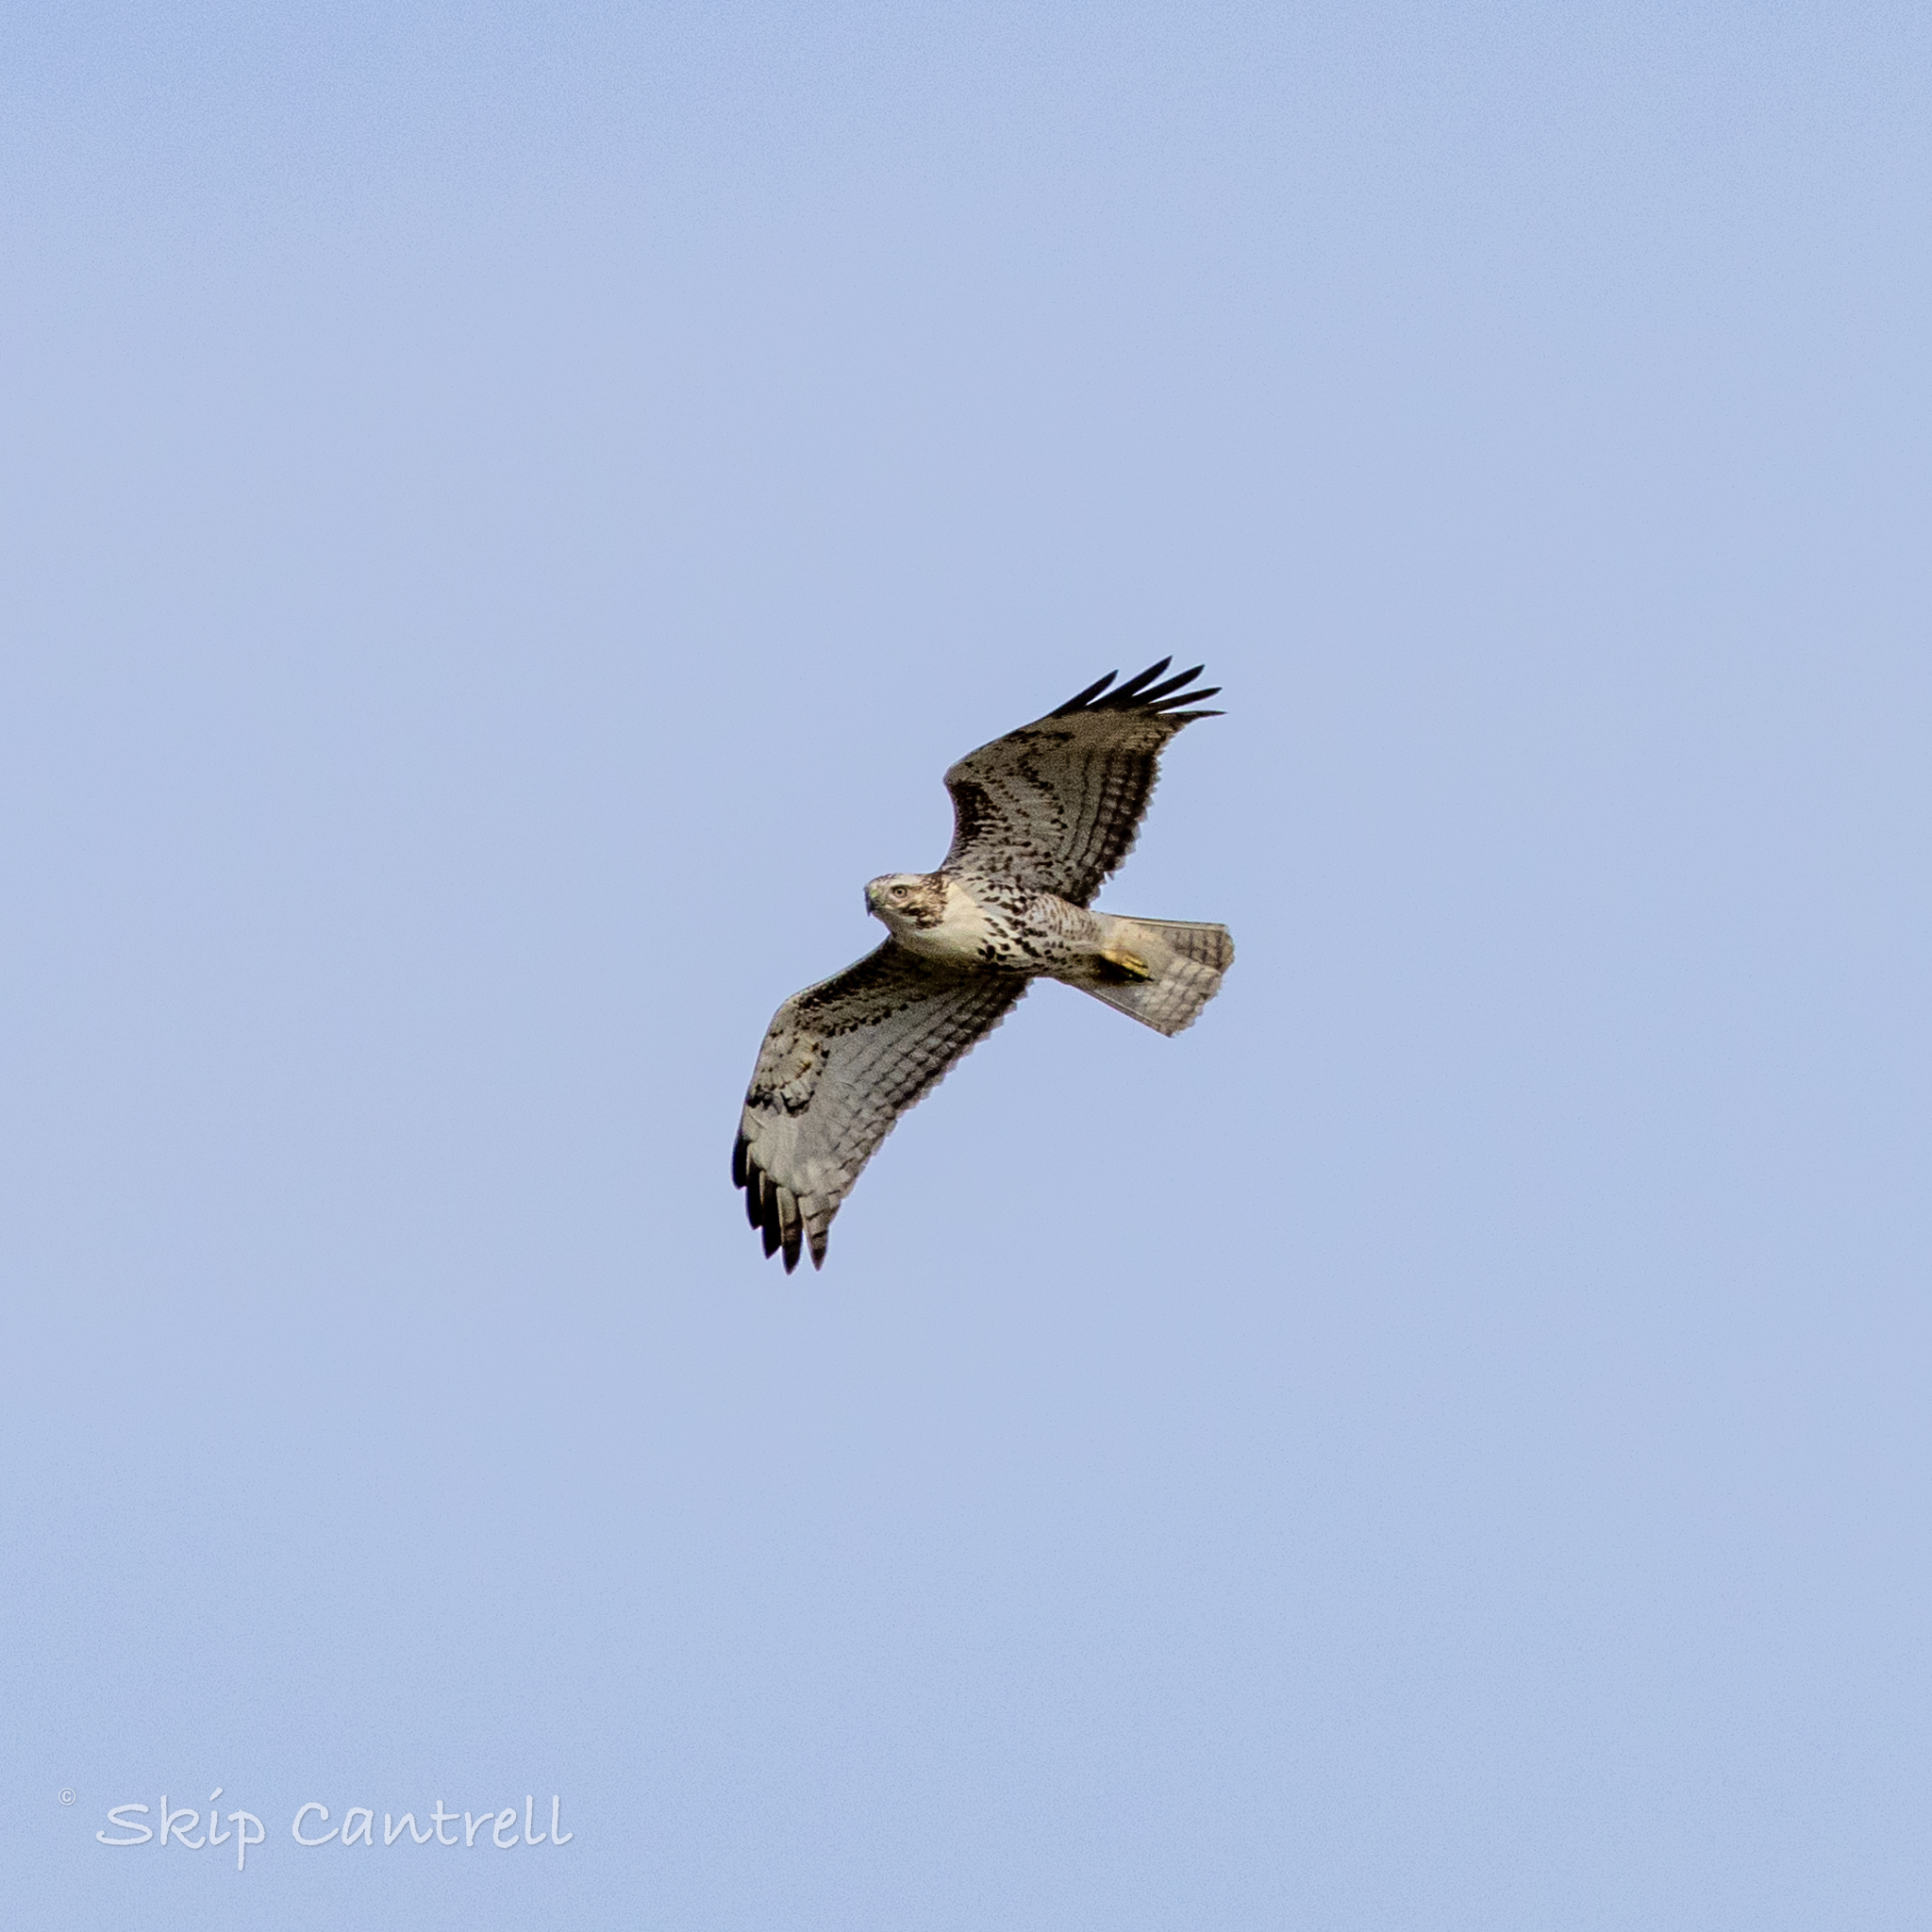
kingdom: Animalia
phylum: Chordata
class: Aves
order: Accipitriformes
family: Accipitridae
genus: Buteo
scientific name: Buteo jamaicensis
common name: Red-tailed hawk
